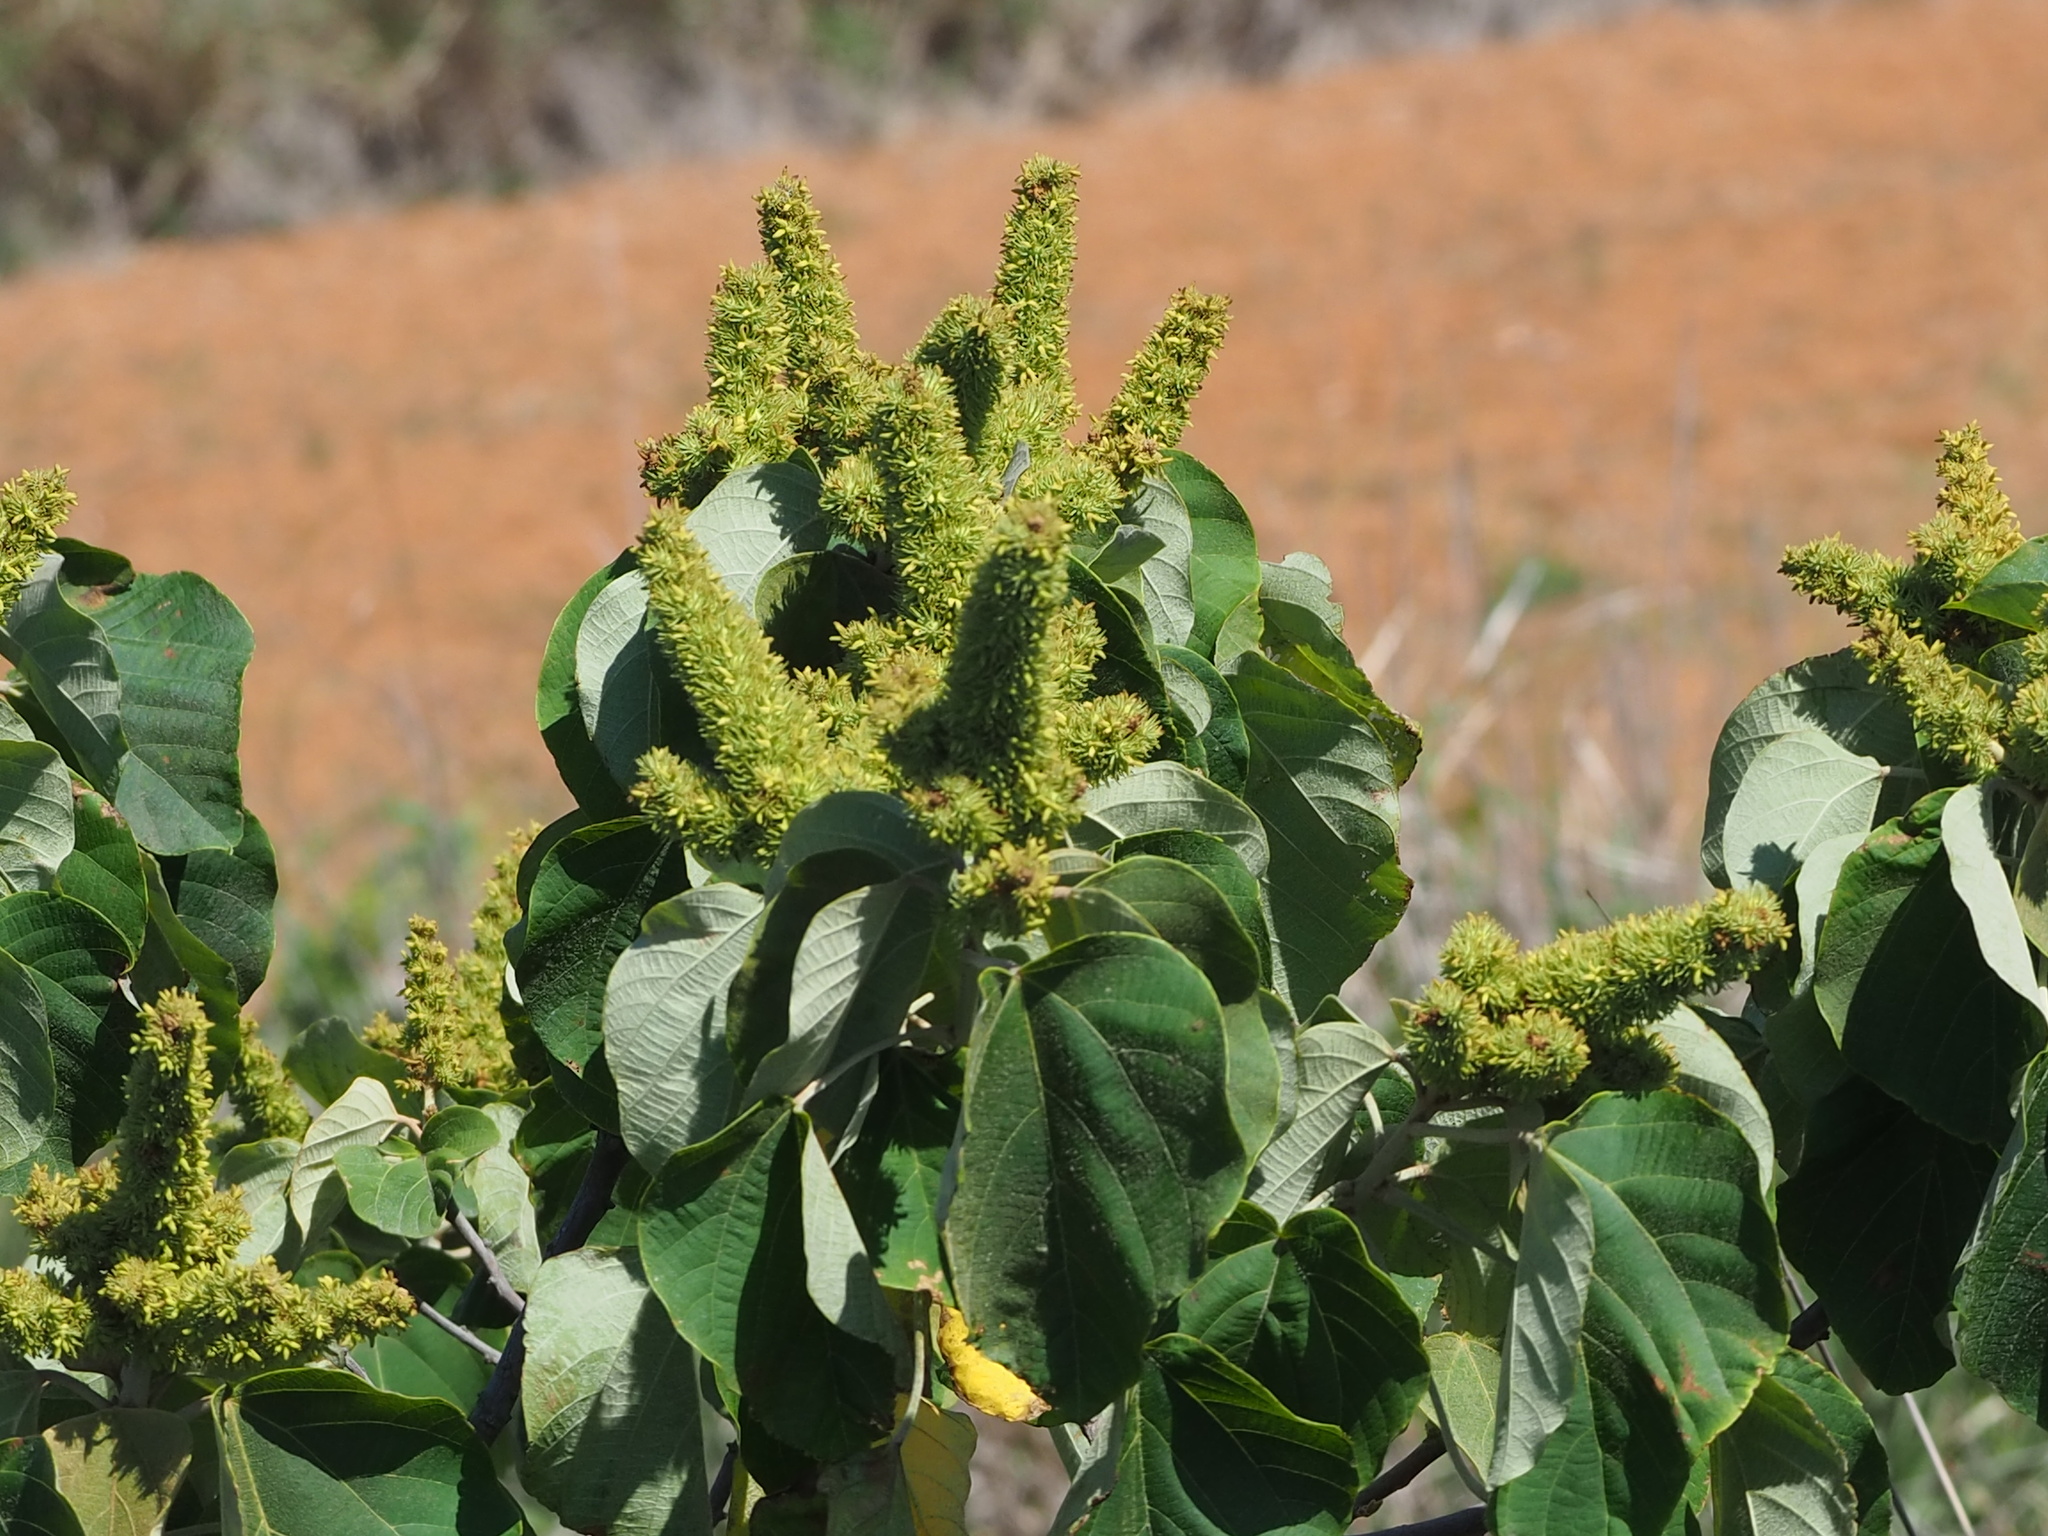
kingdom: Plantae
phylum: Tracheophyta
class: Magnoliopsida
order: Malpighiales
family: Euphorbiaceae
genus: Mallotus
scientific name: Mallotus japonicus
